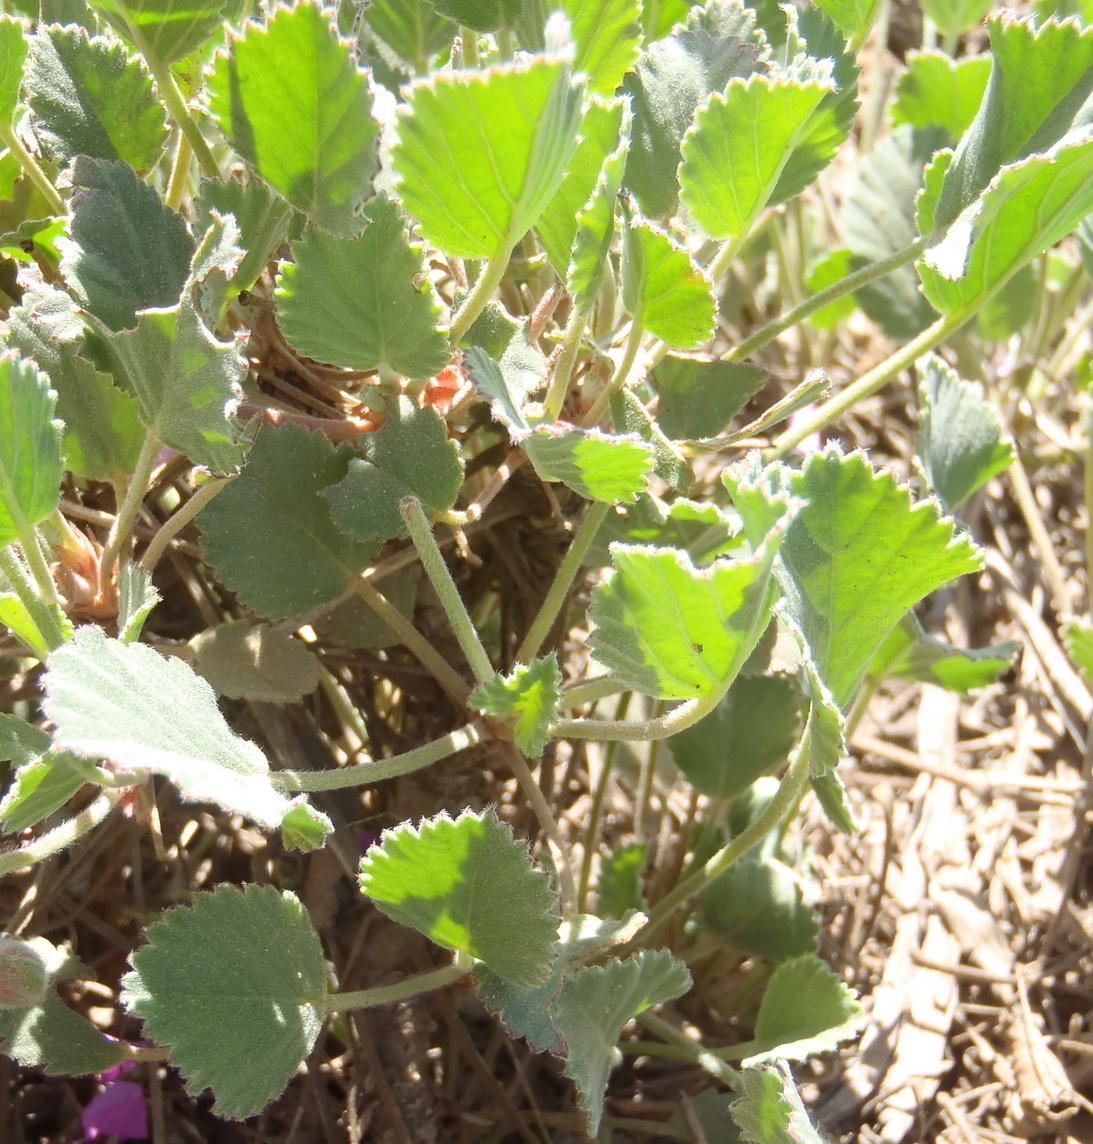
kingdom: Plantae
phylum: Tracheophyta
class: Magnoliopsida
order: Geraniales
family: Geraniaceae
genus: Pelargonium
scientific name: Pelargonium ovale
